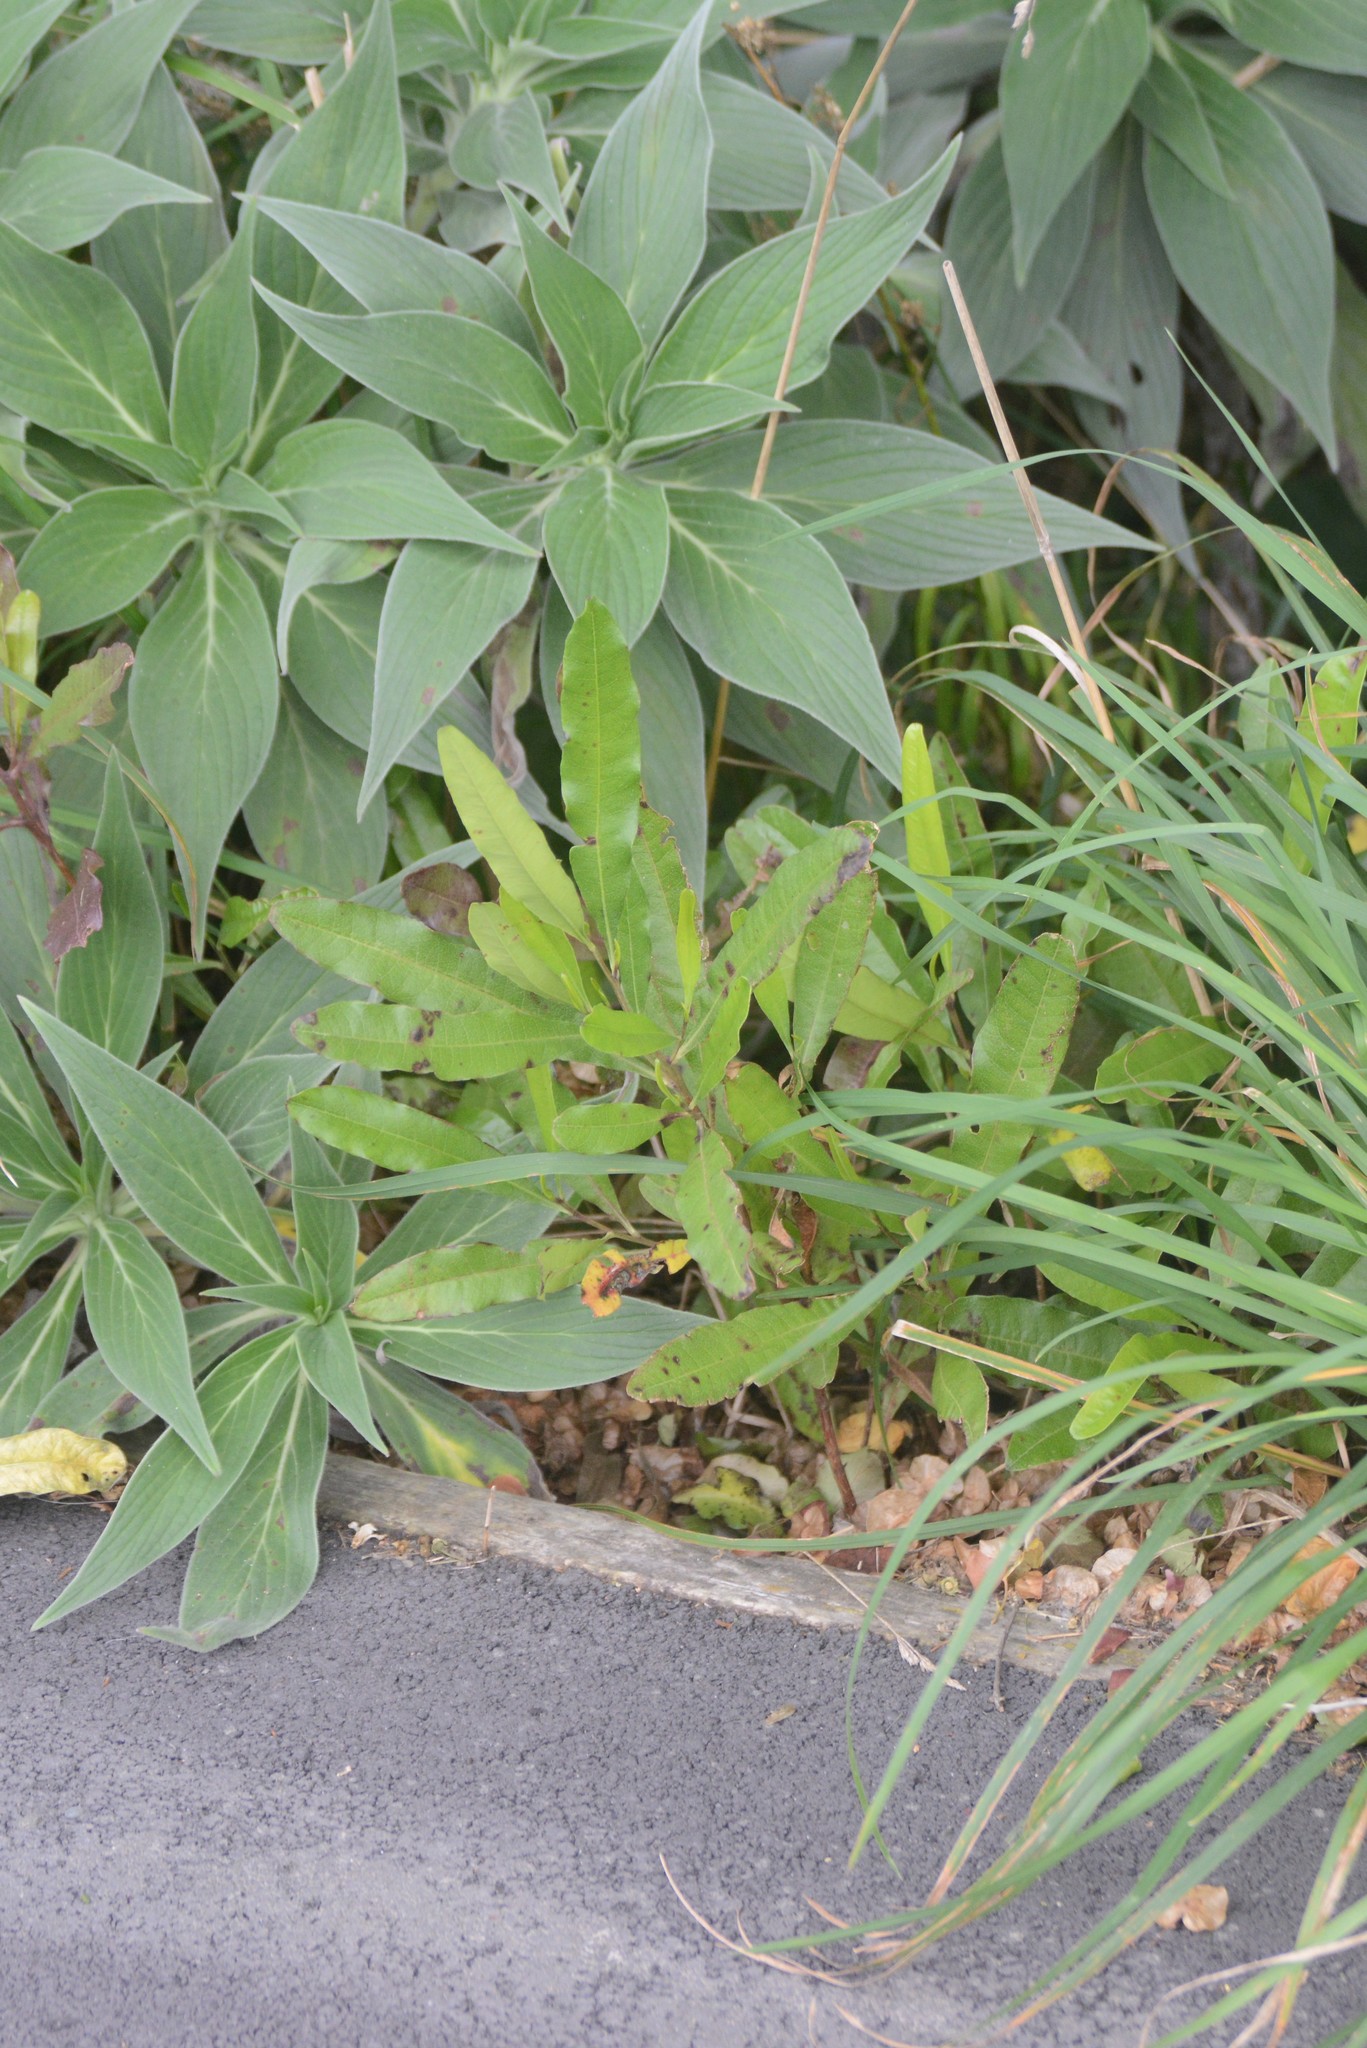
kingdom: Plantae
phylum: Tracheophyta
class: Magnoliopsida
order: Sapindales
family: Sapindaceae
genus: Dodonaea
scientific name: Dodonaea viscosa
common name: Hopbush
